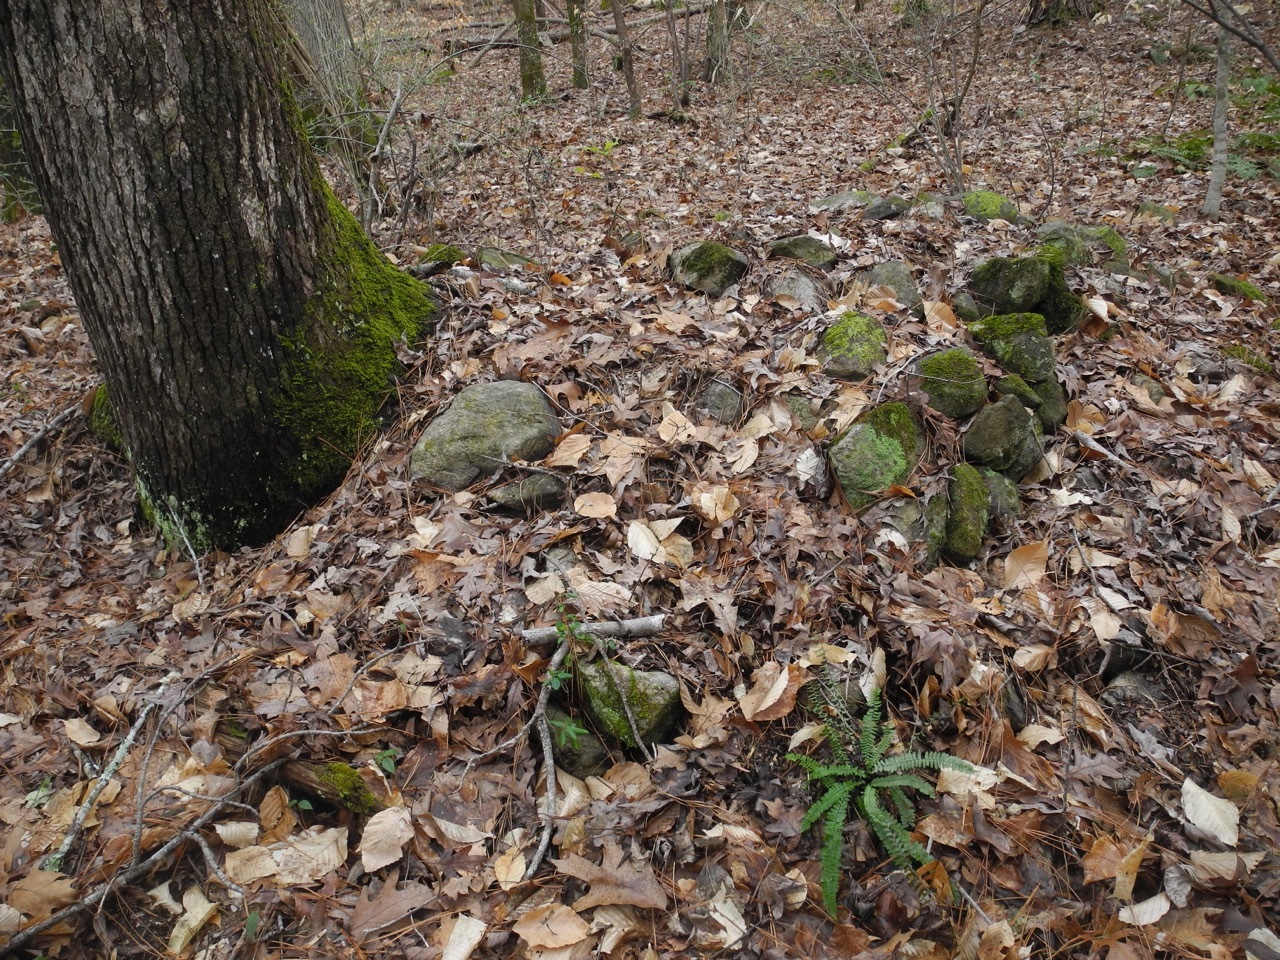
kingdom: Plantae
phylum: Tracheophyta
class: Magnoliopsida
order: Fagales
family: Fagaceae
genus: Quercus
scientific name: Quercus falcata
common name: Southern red oak
